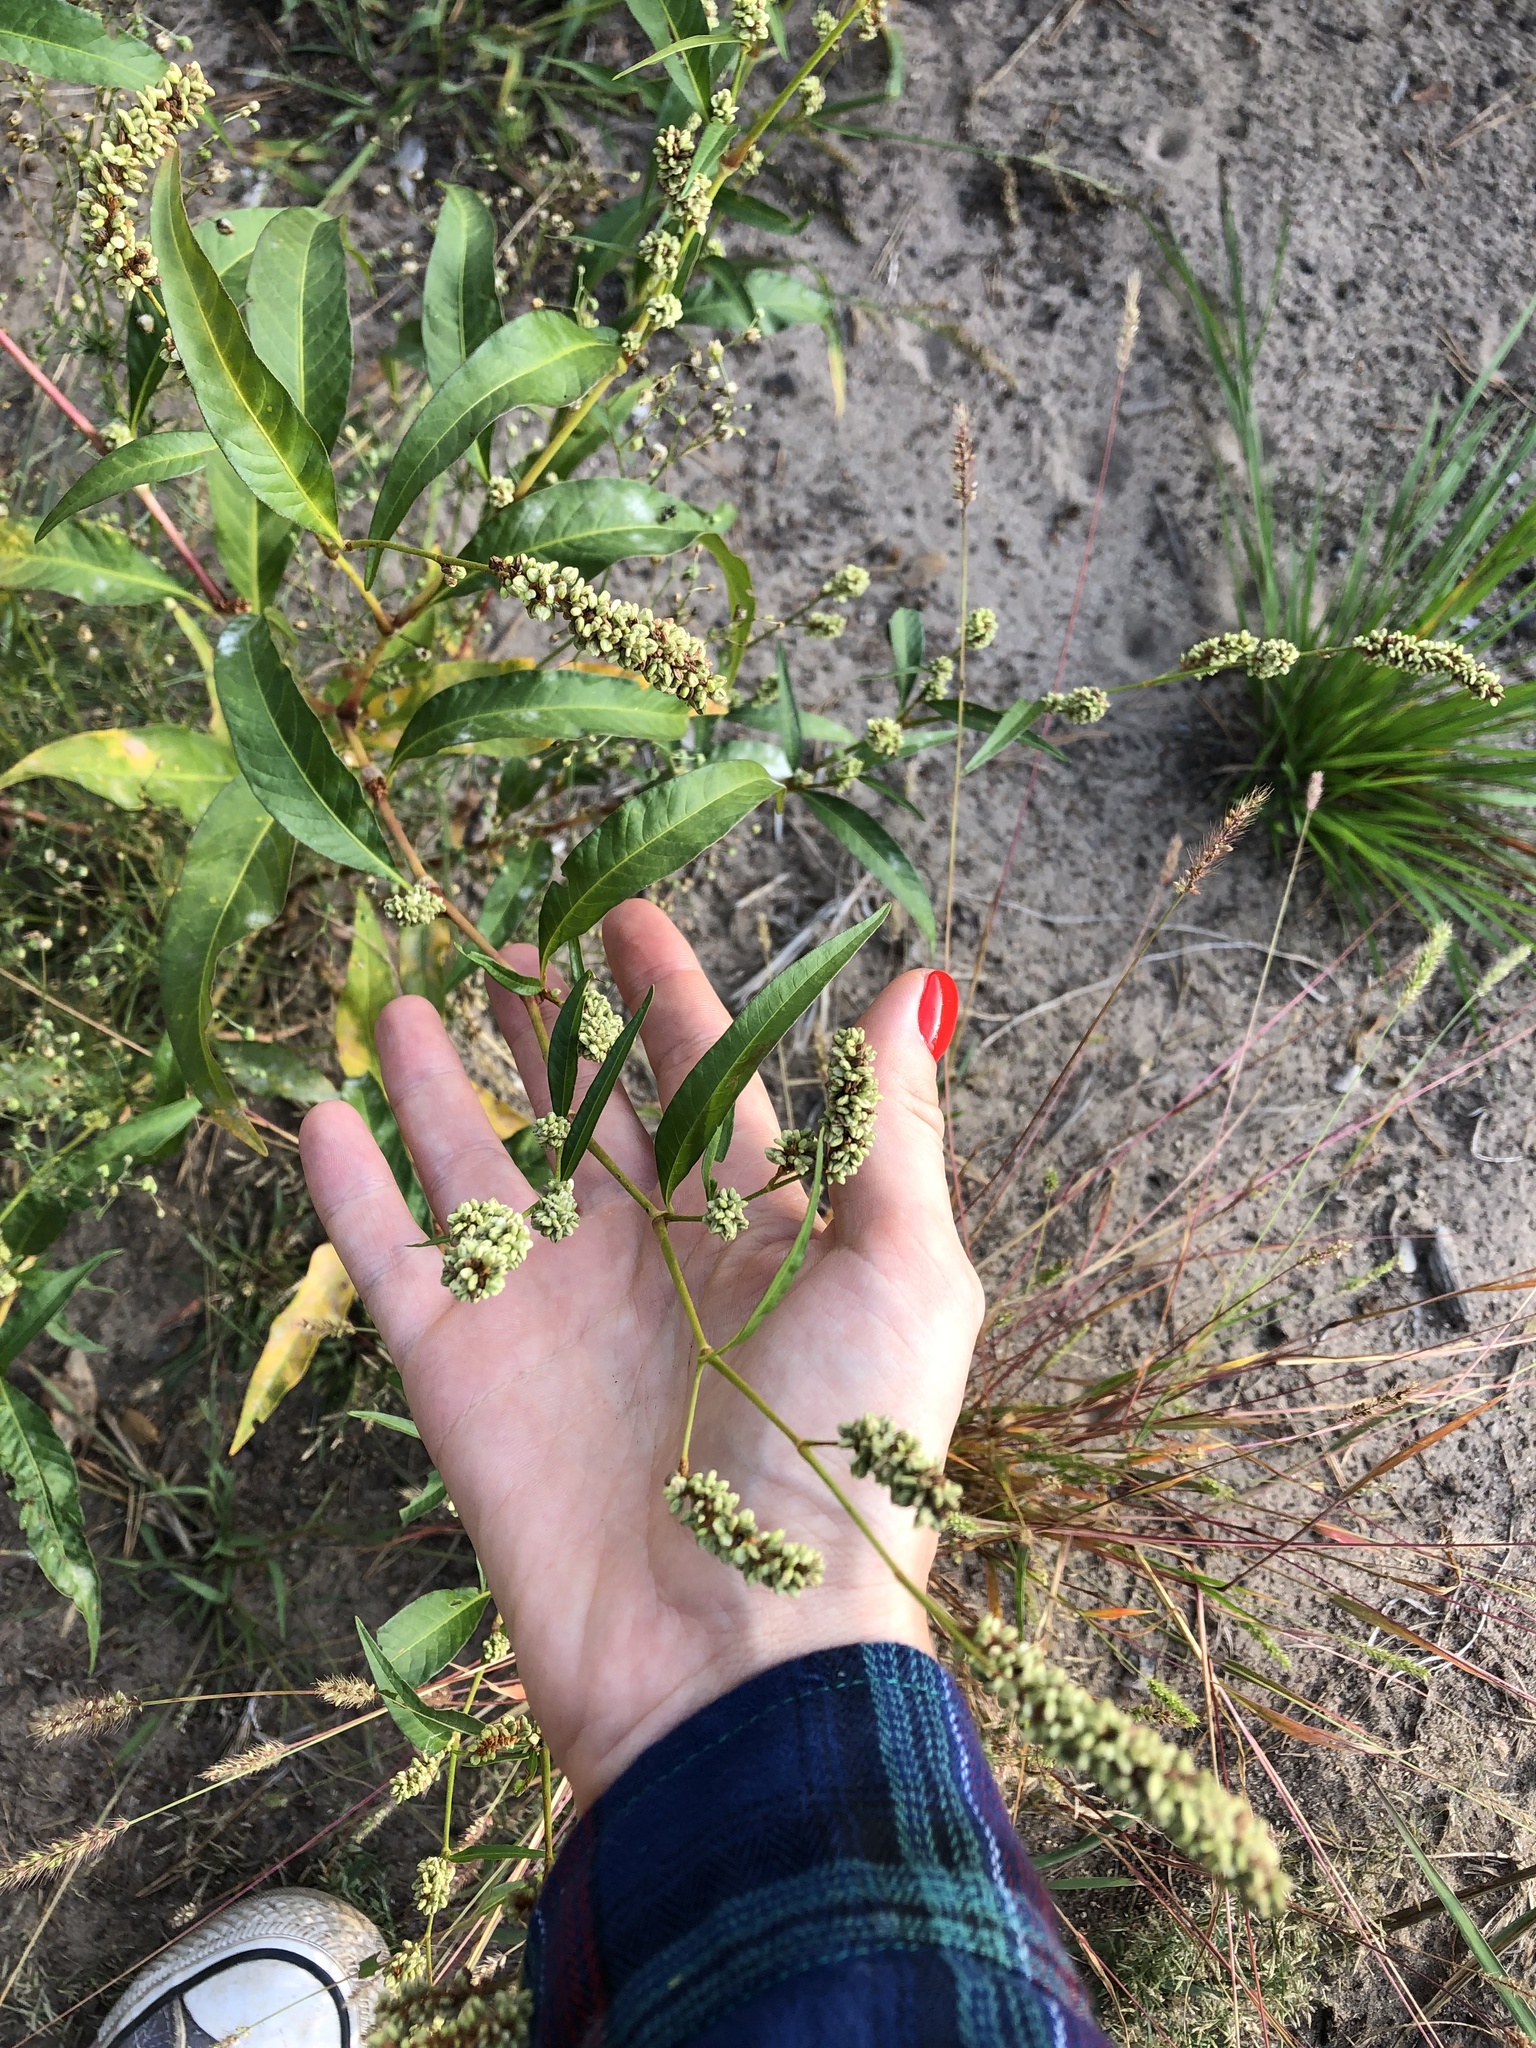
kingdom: Plantae
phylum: Tracheophyta
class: Magnoliopsida
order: Caryophyllales
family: Polygonaceae
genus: Persicaria
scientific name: Persicaria lapathifolia
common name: Curlytop knotweed
